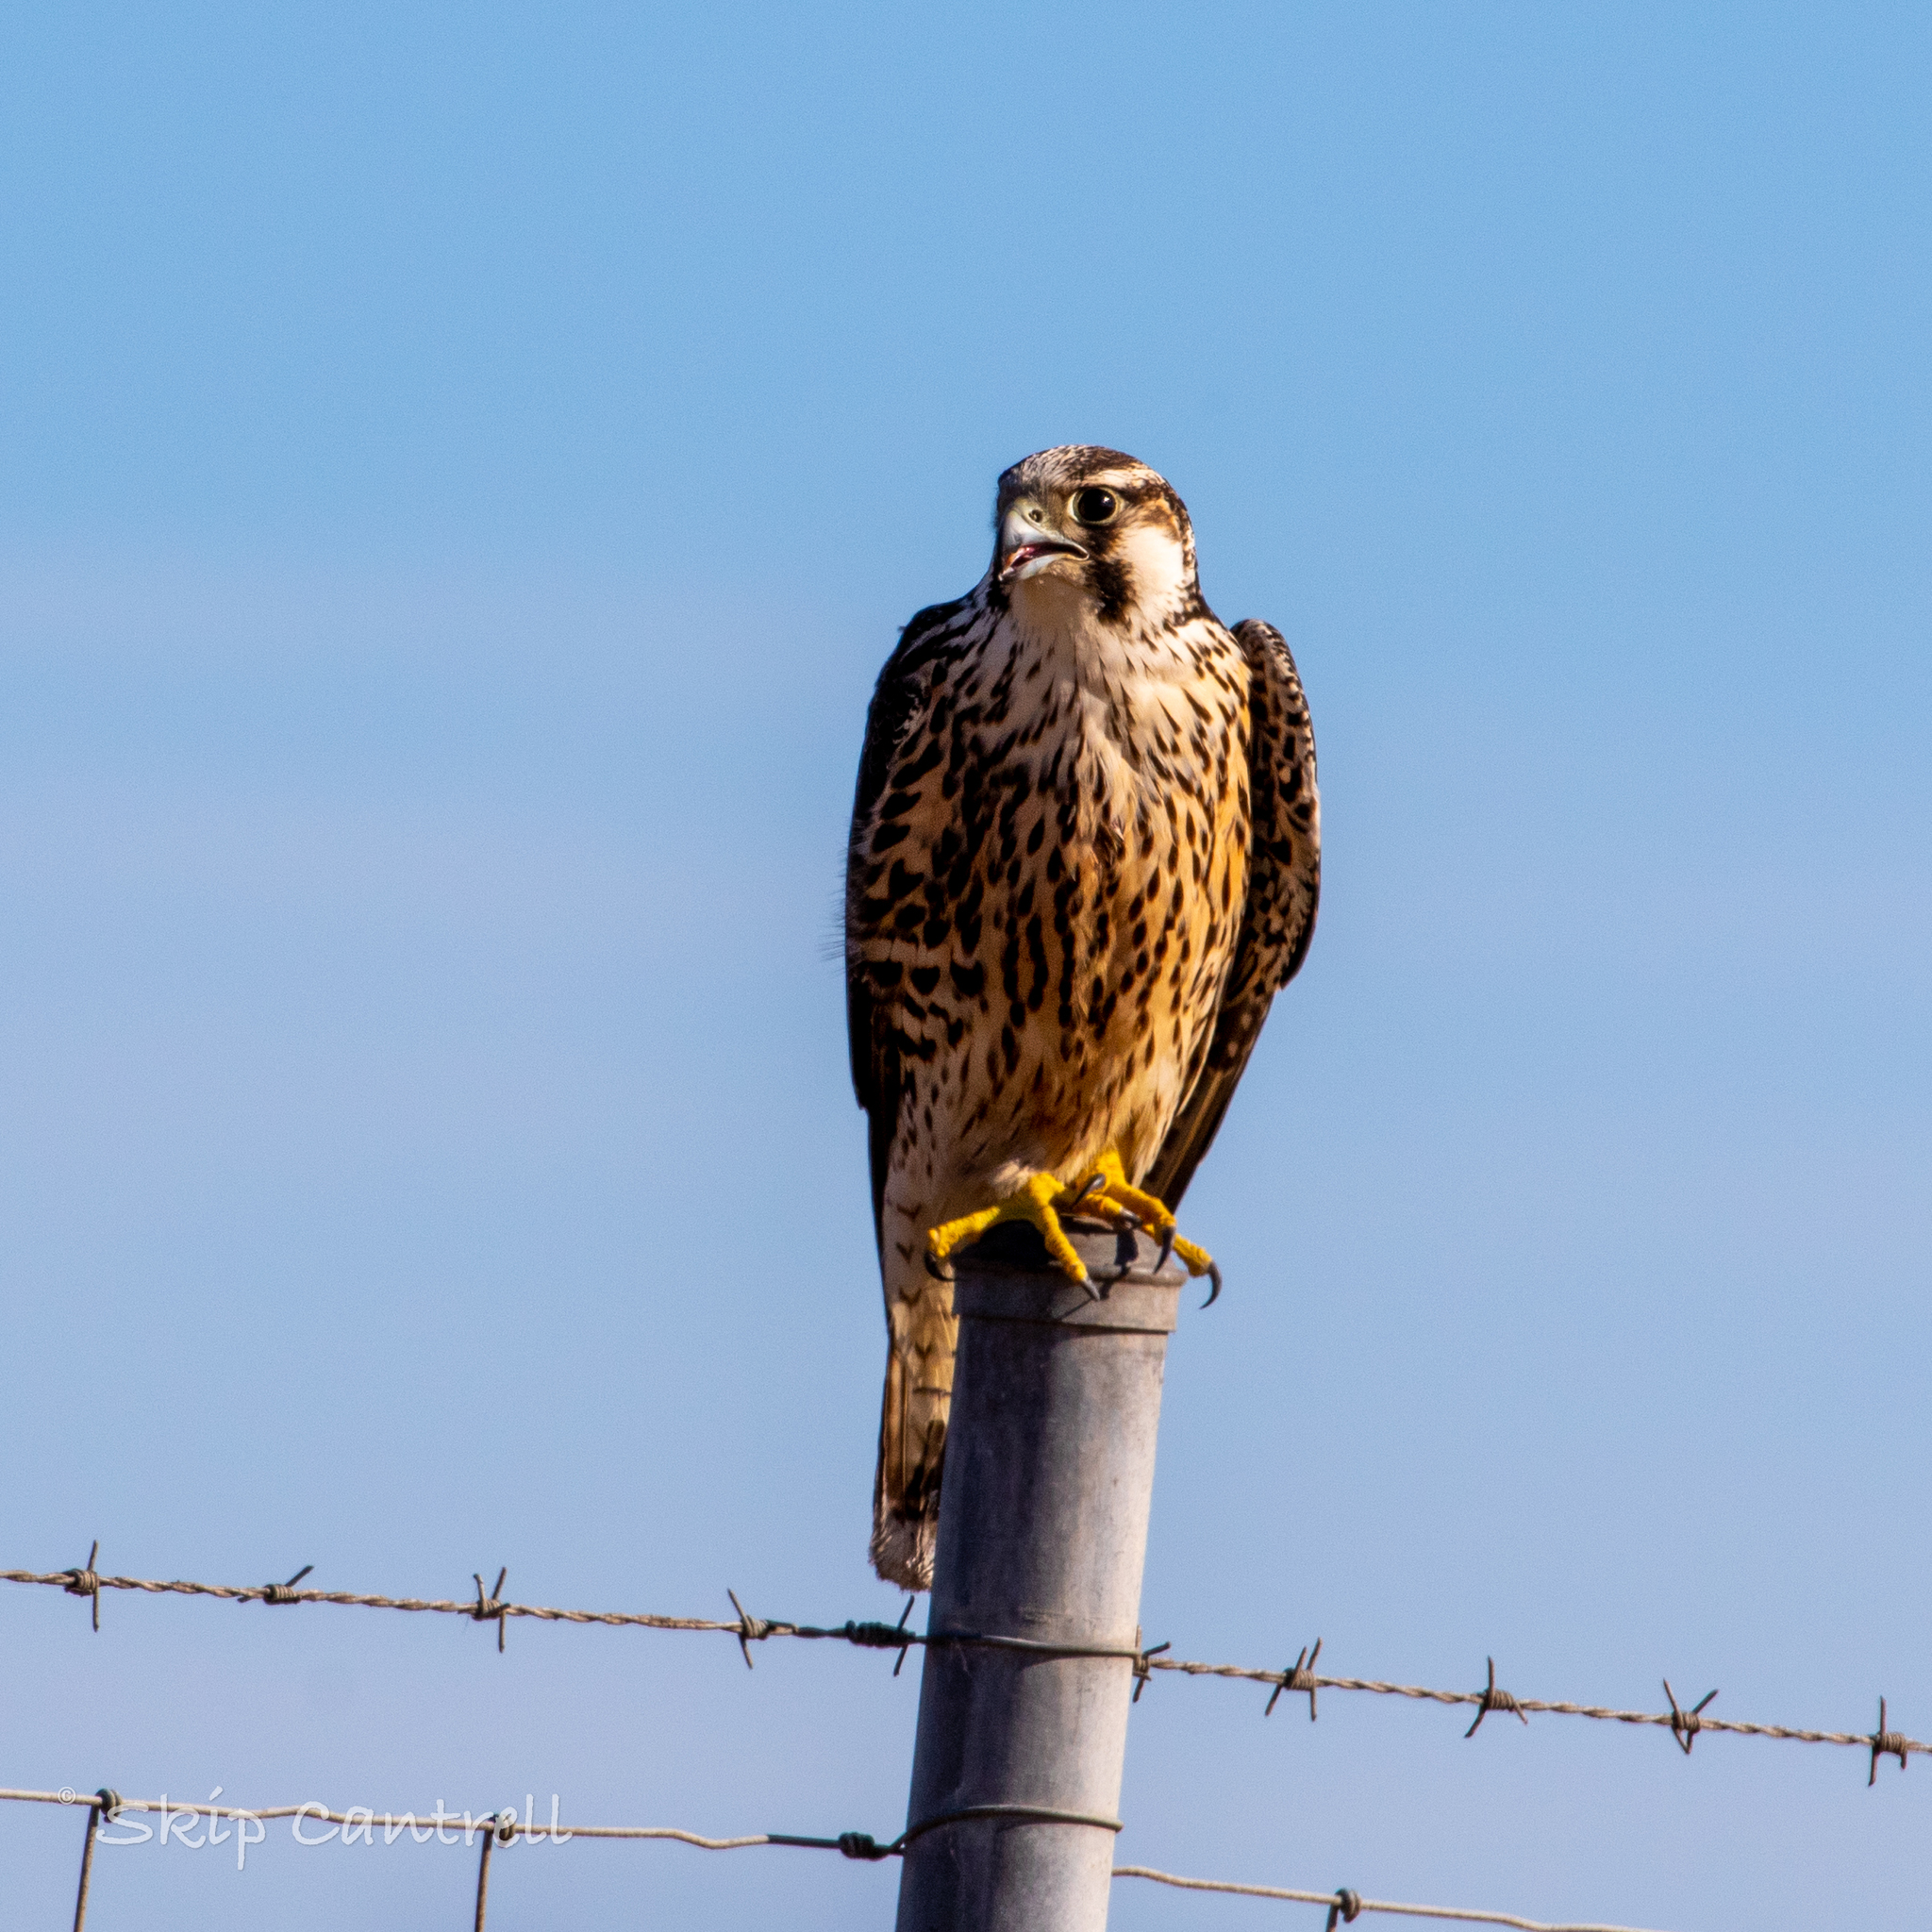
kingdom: Animalia
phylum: Chordata
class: Aves
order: Falconiformes
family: Falconidae
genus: Falco
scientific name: Falco peregrinus
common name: Peregrine falcon
